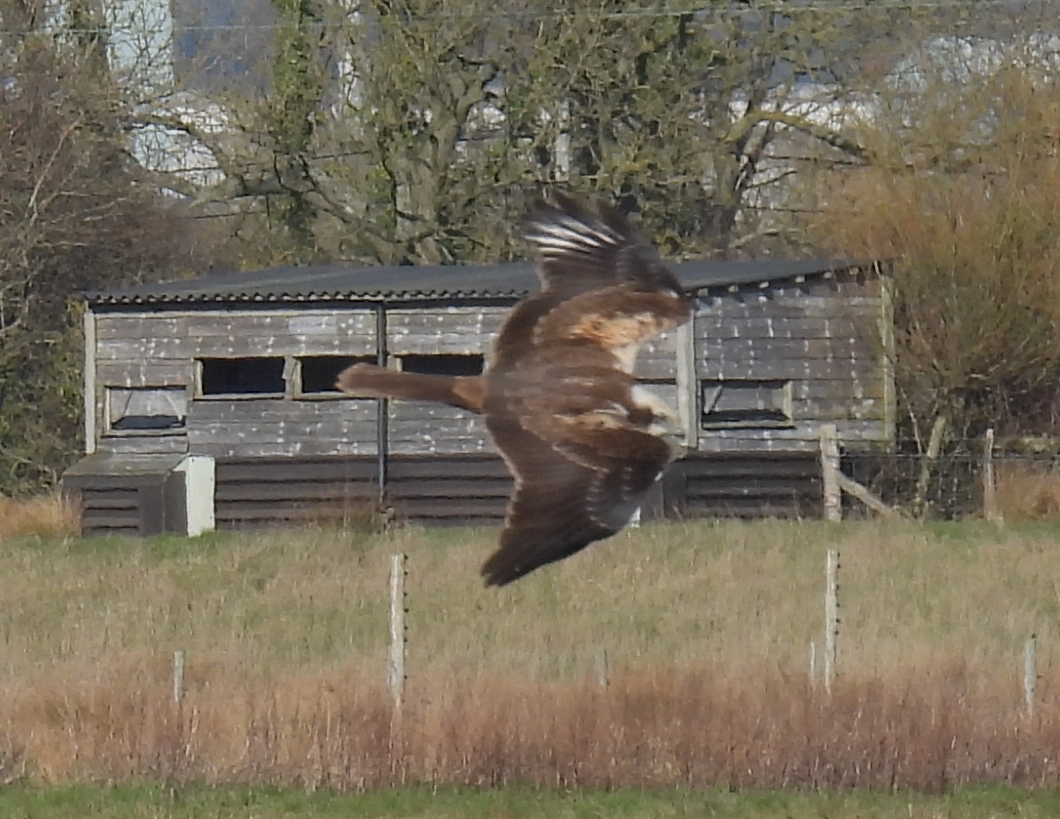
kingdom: Animalia
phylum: Chordata
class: Aves
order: Accipitriformes
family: Accipitridae
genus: Circus
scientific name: Circus aeruginosus
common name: Western marsh harrier
